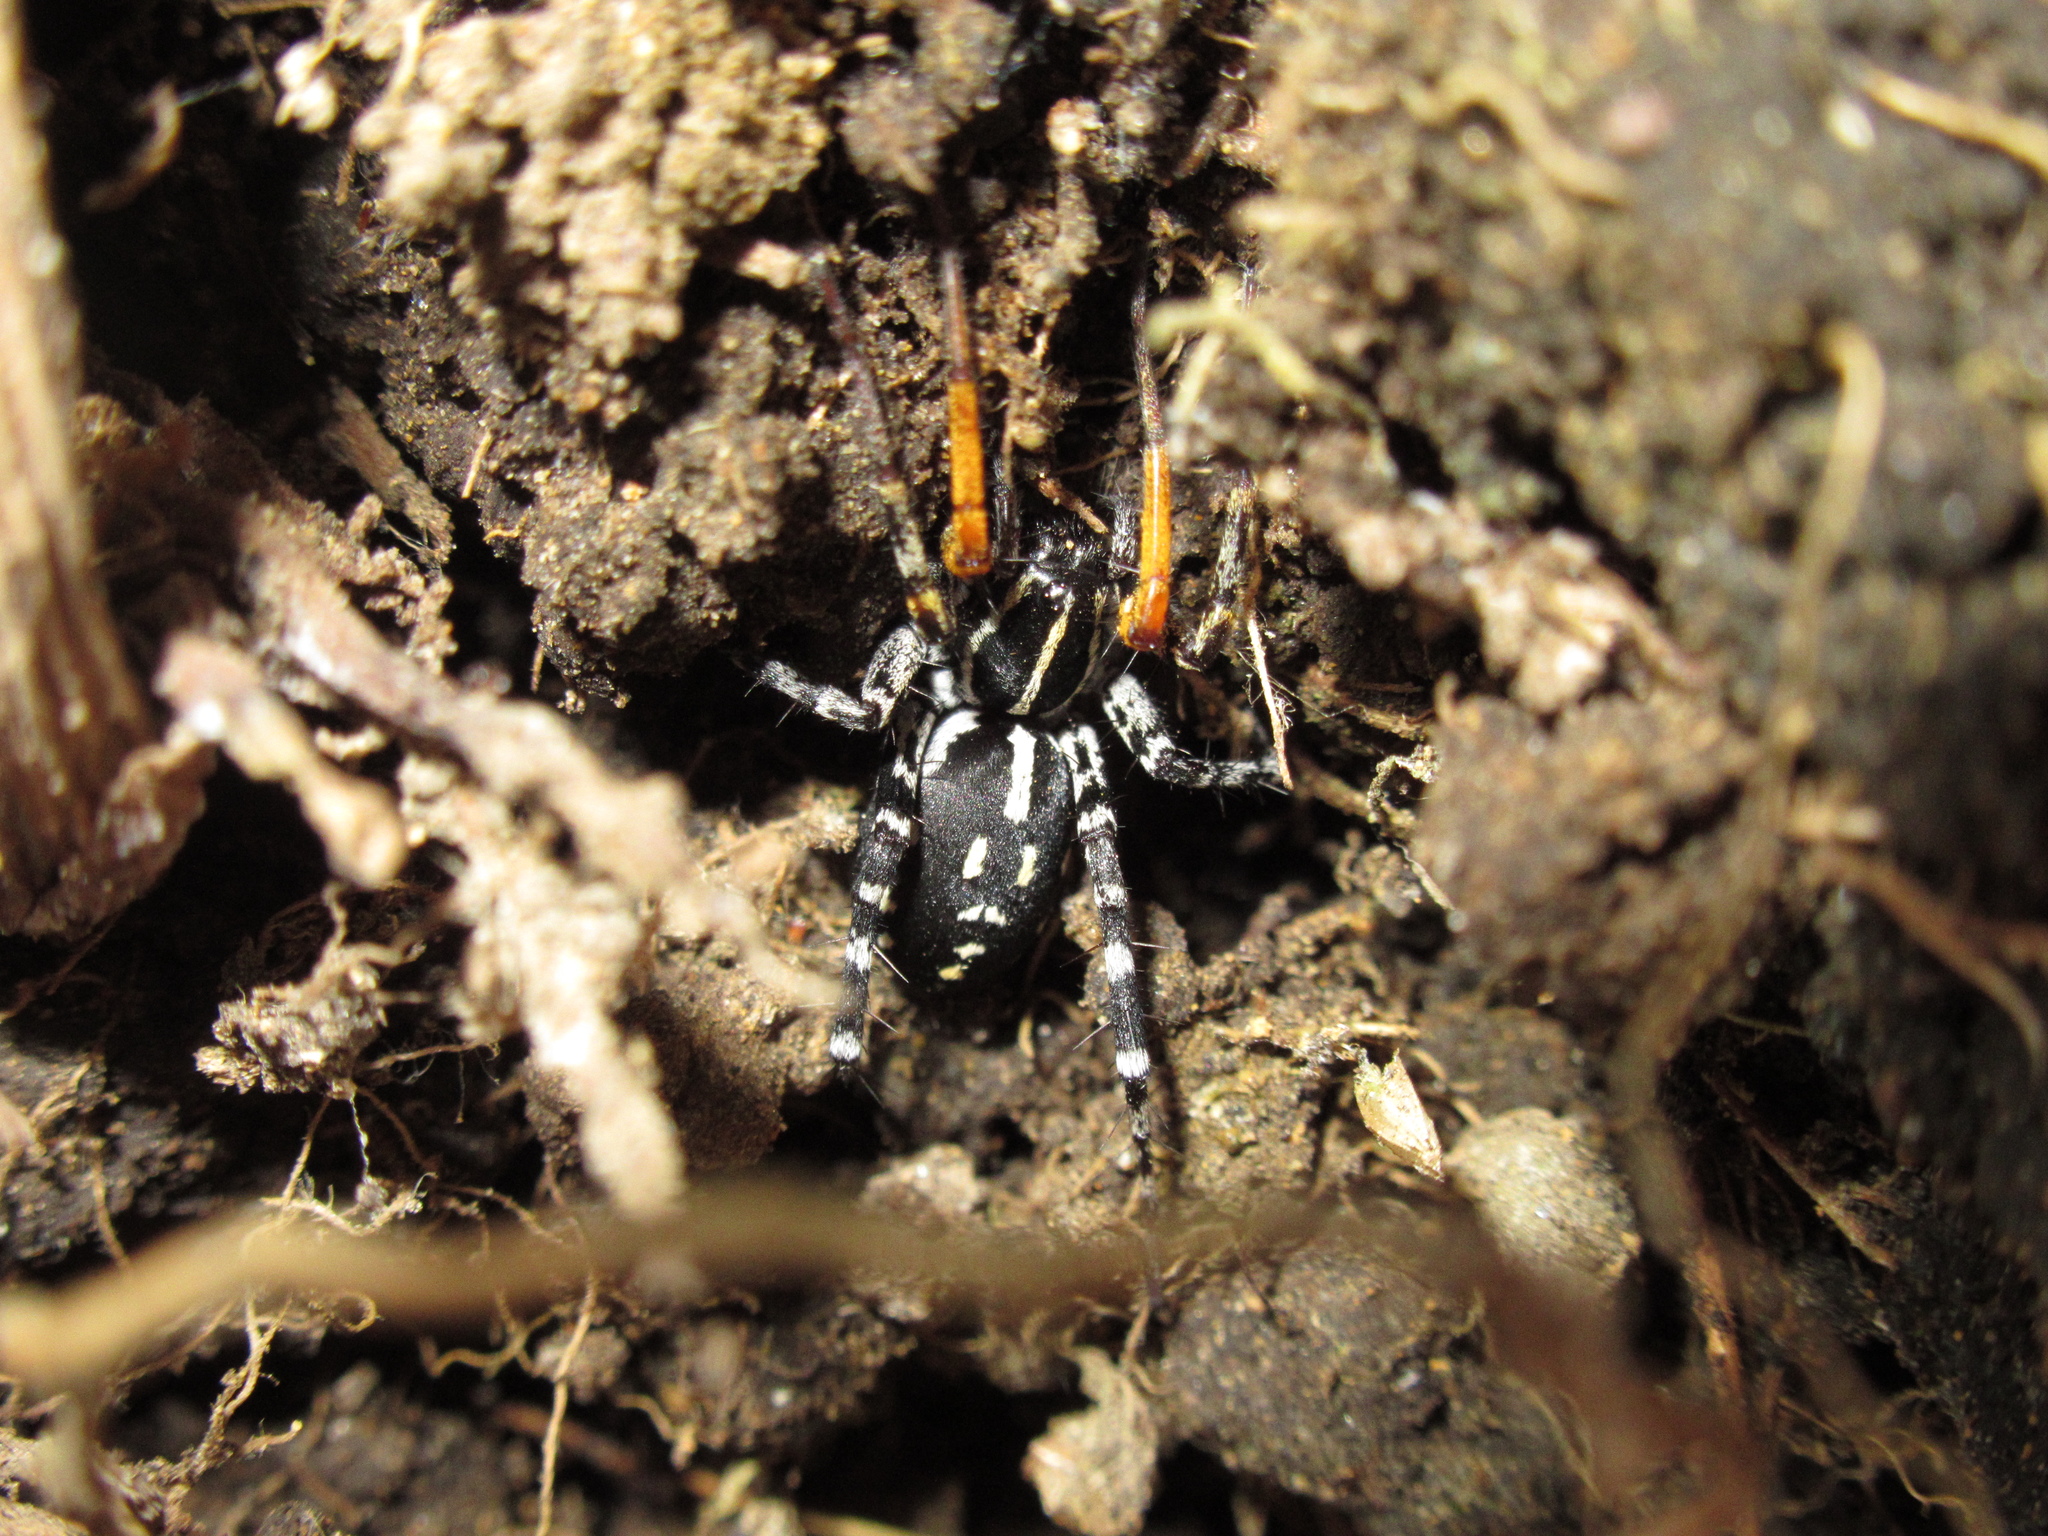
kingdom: Animalia
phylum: Arthropoda
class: Arachnida
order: Araneae
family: Corinnidae
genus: Nyssus
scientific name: Nyssus coloripes
